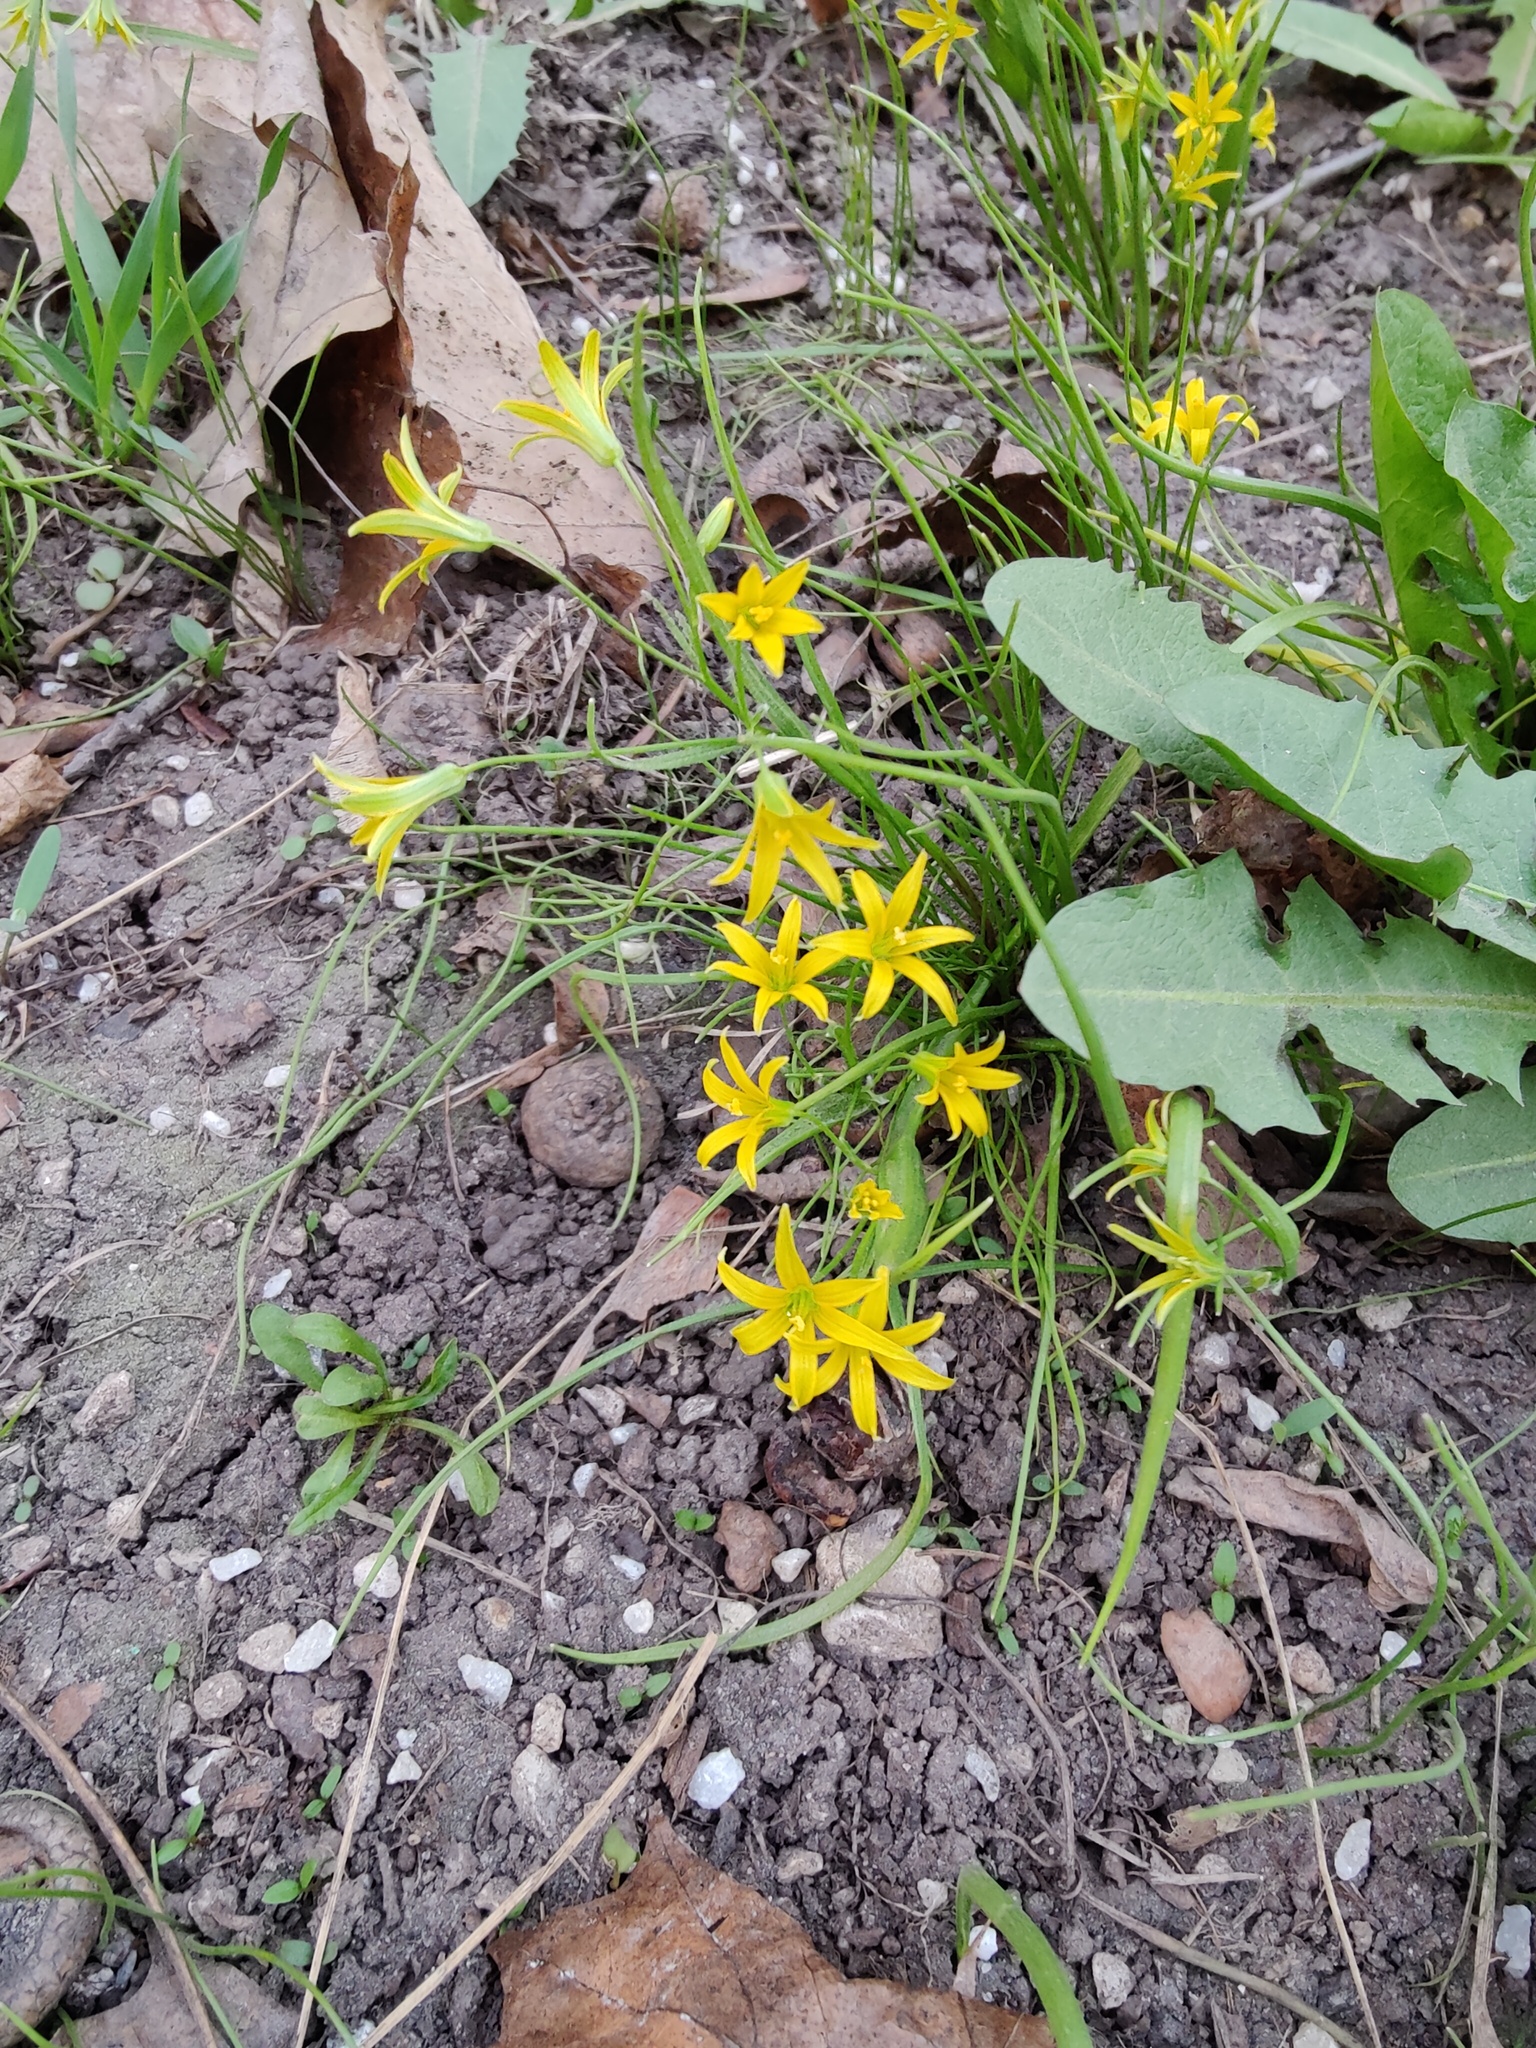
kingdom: Plantae
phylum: Tracheophyta
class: Liliopsida
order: Liliales
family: Liliaceae
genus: Gagea
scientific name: Gagea minima
